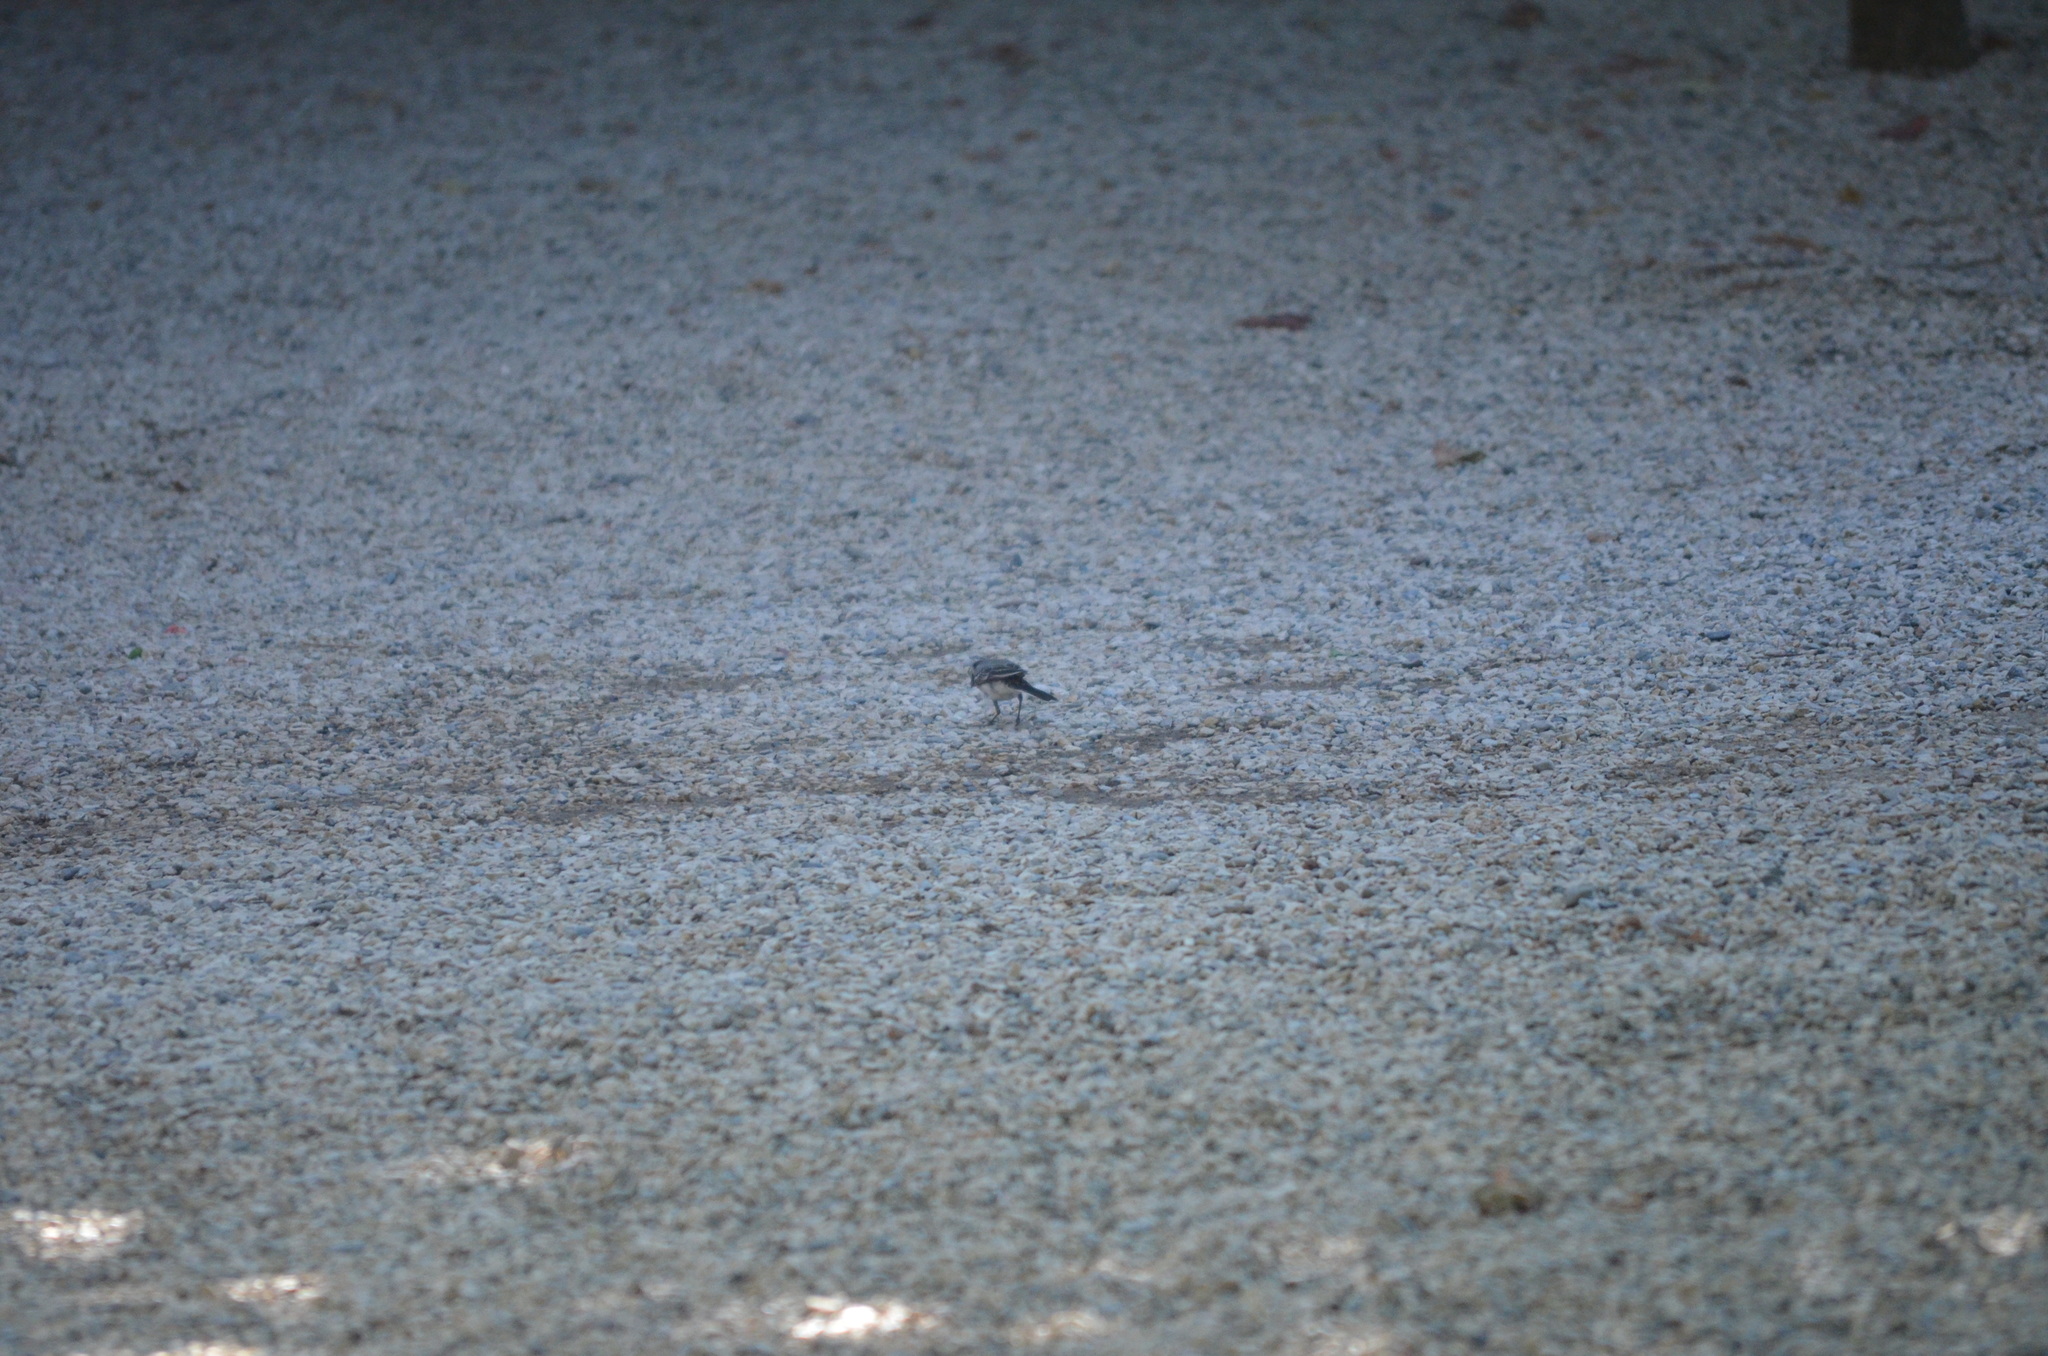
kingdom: Animalia
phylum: Chordata
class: Aves
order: Passeriformes
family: Motacillidae
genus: Motacilla
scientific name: Motacilla alba
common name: White wagtail
